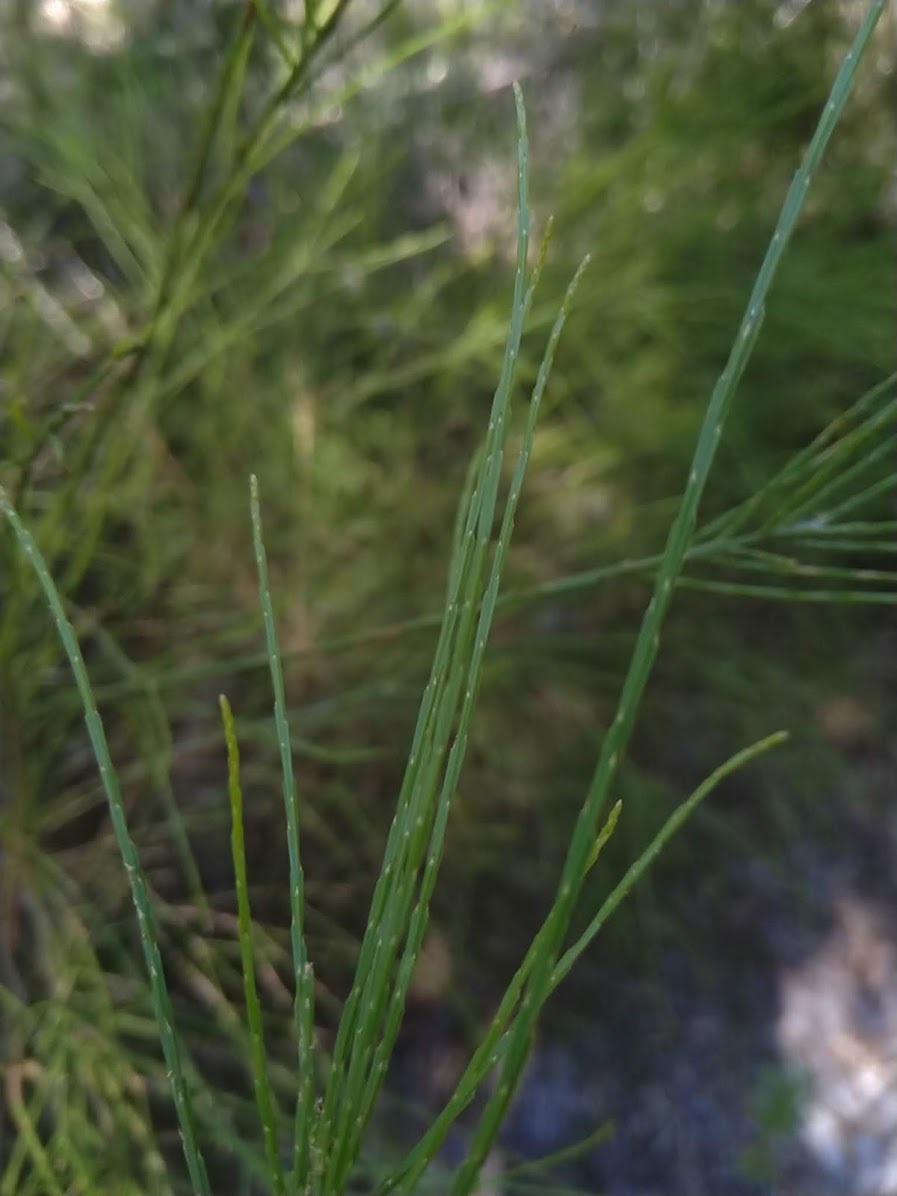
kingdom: Plantae
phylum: Tracheophyta
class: Magnoliopsida
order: Santalales
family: Amphorogynaceae
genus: Choretrum
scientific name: Choretrum candollei
